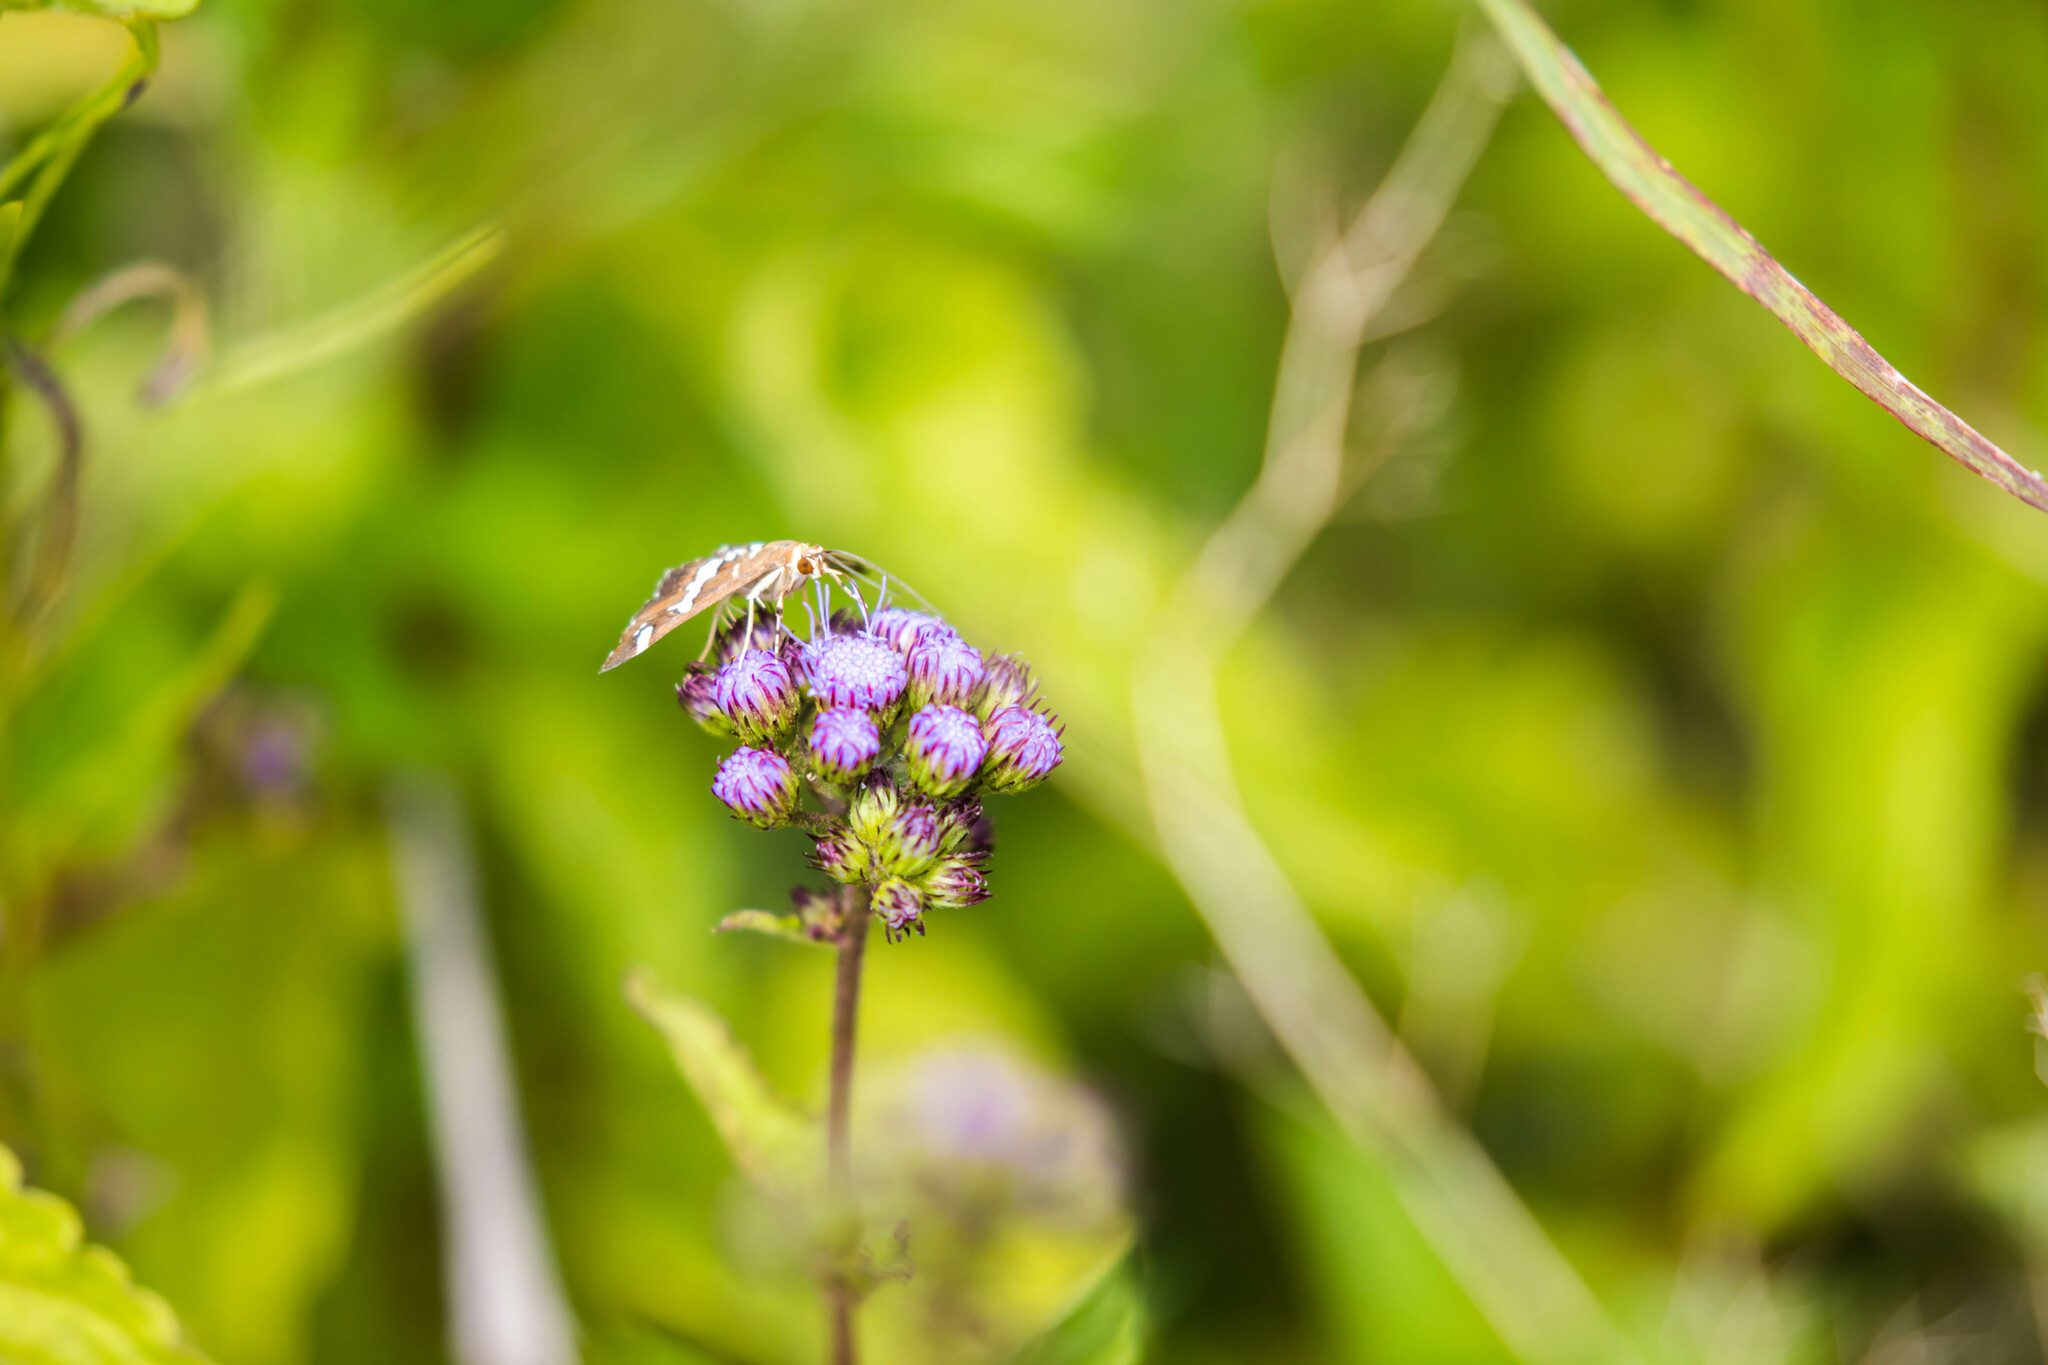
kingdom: Animalia
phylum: Arthropoda
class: Insecta
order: Lepidoptera
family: Crambidae
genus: Spoladea
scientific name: Spoladea recurvalis
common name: Beet webworm moth
